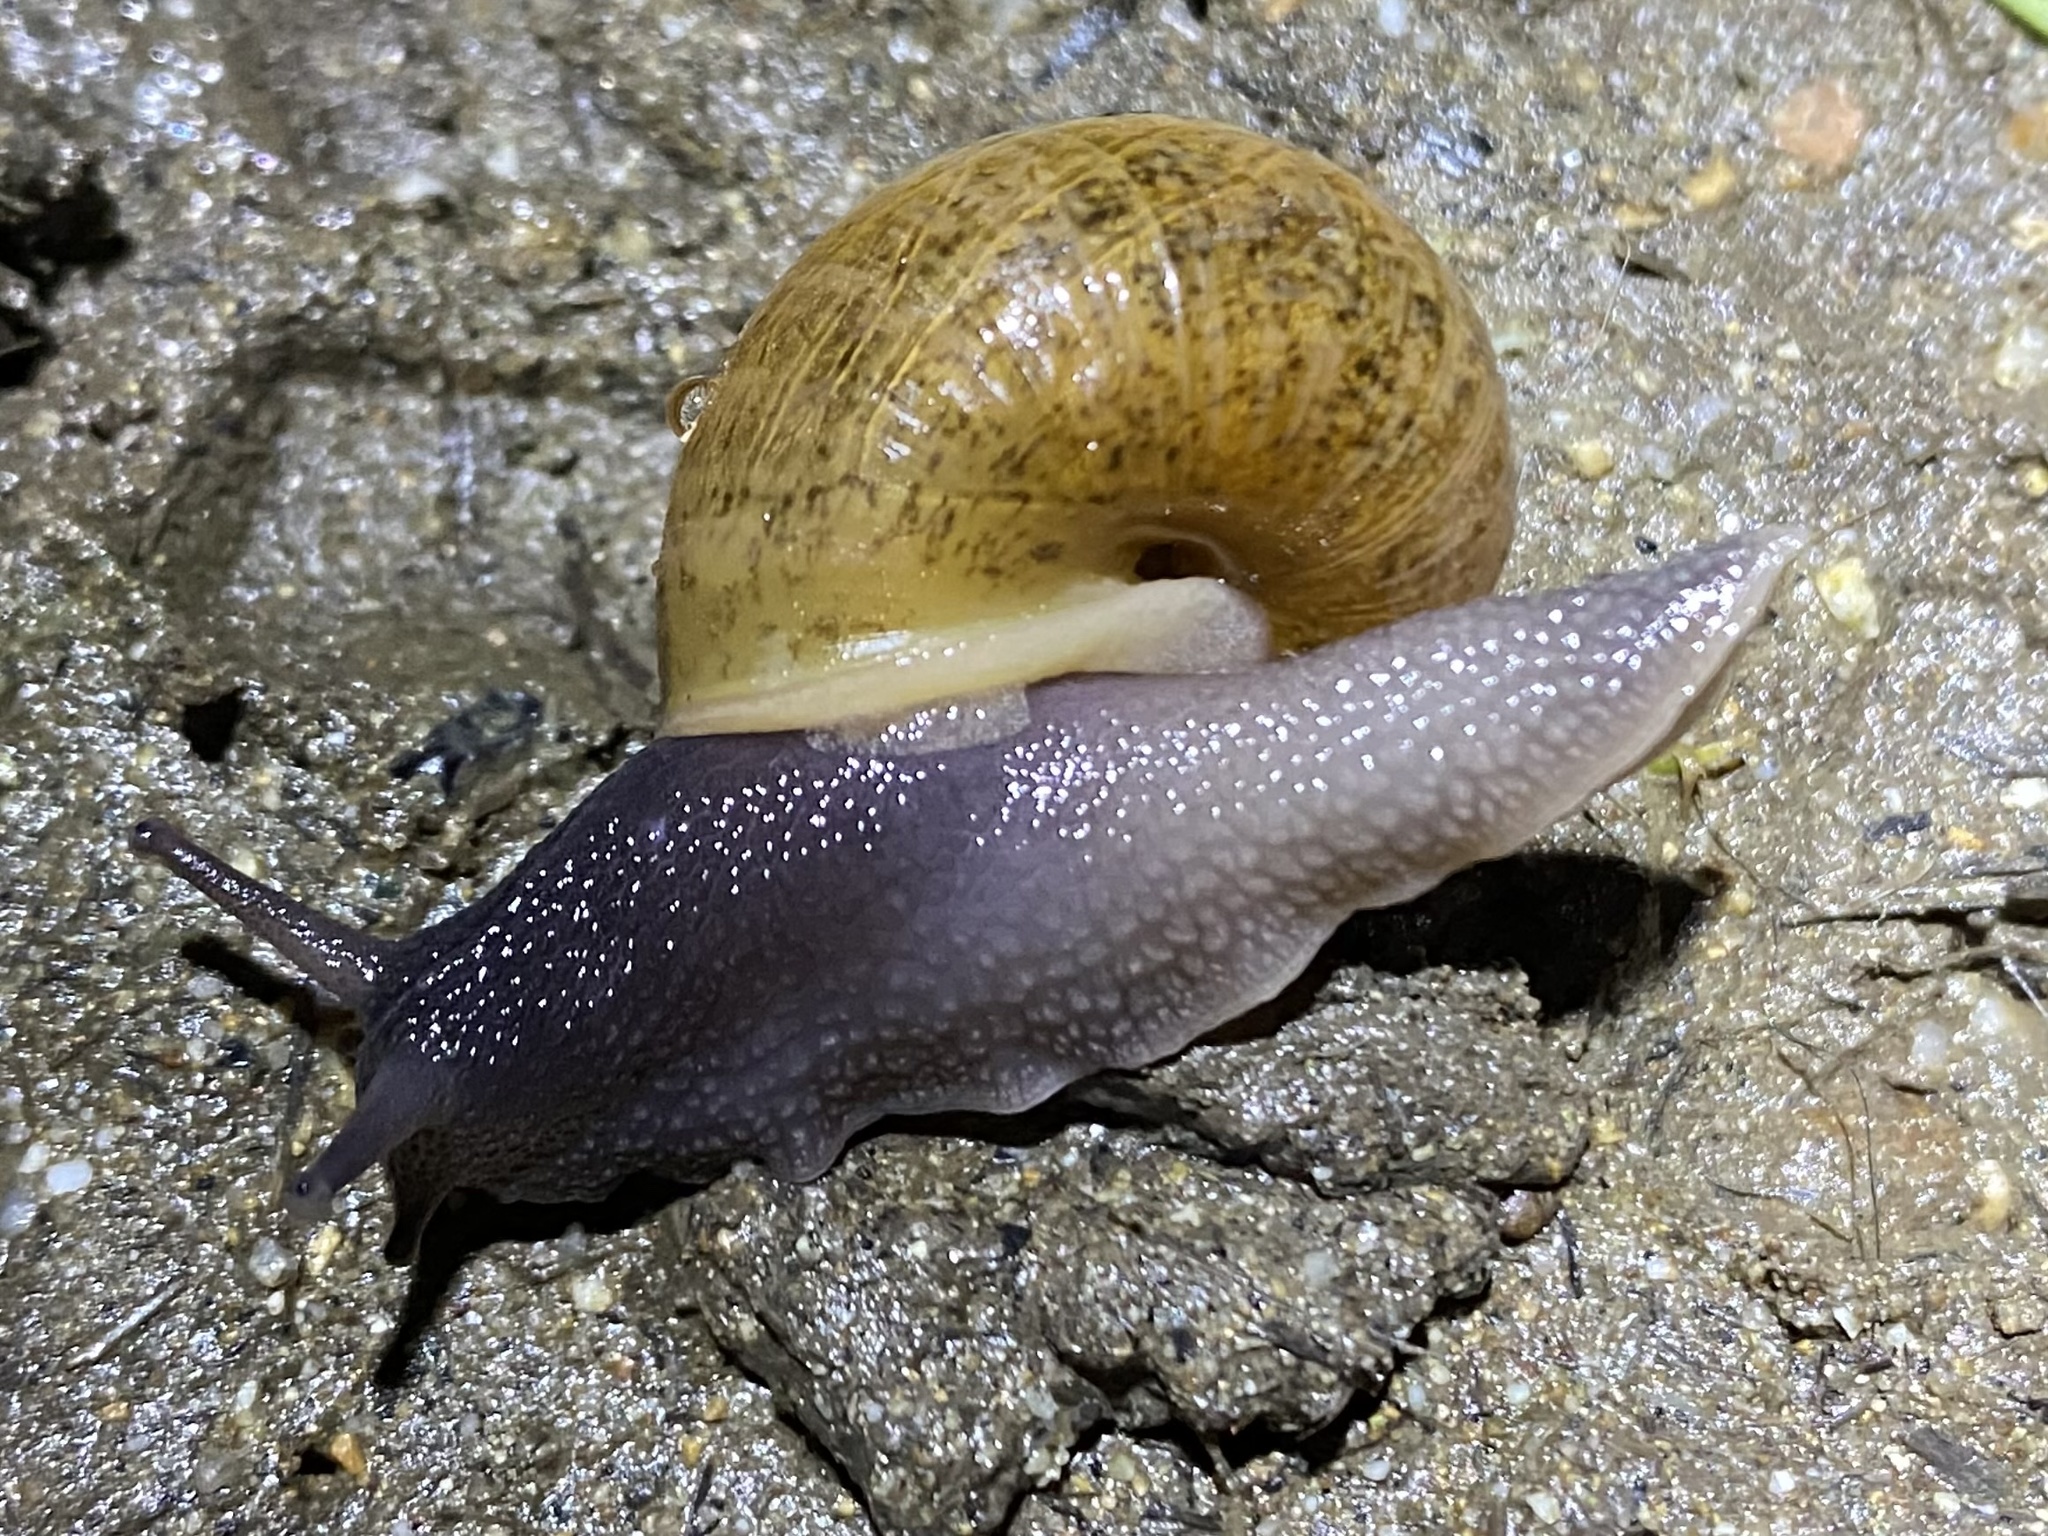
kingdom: Animalia
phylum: Mollusca
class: Gastropoda
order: Stylommatophora
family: Xanthonychidae
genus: Helminthoglypta
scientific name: Helminthoglypta nickliniana
